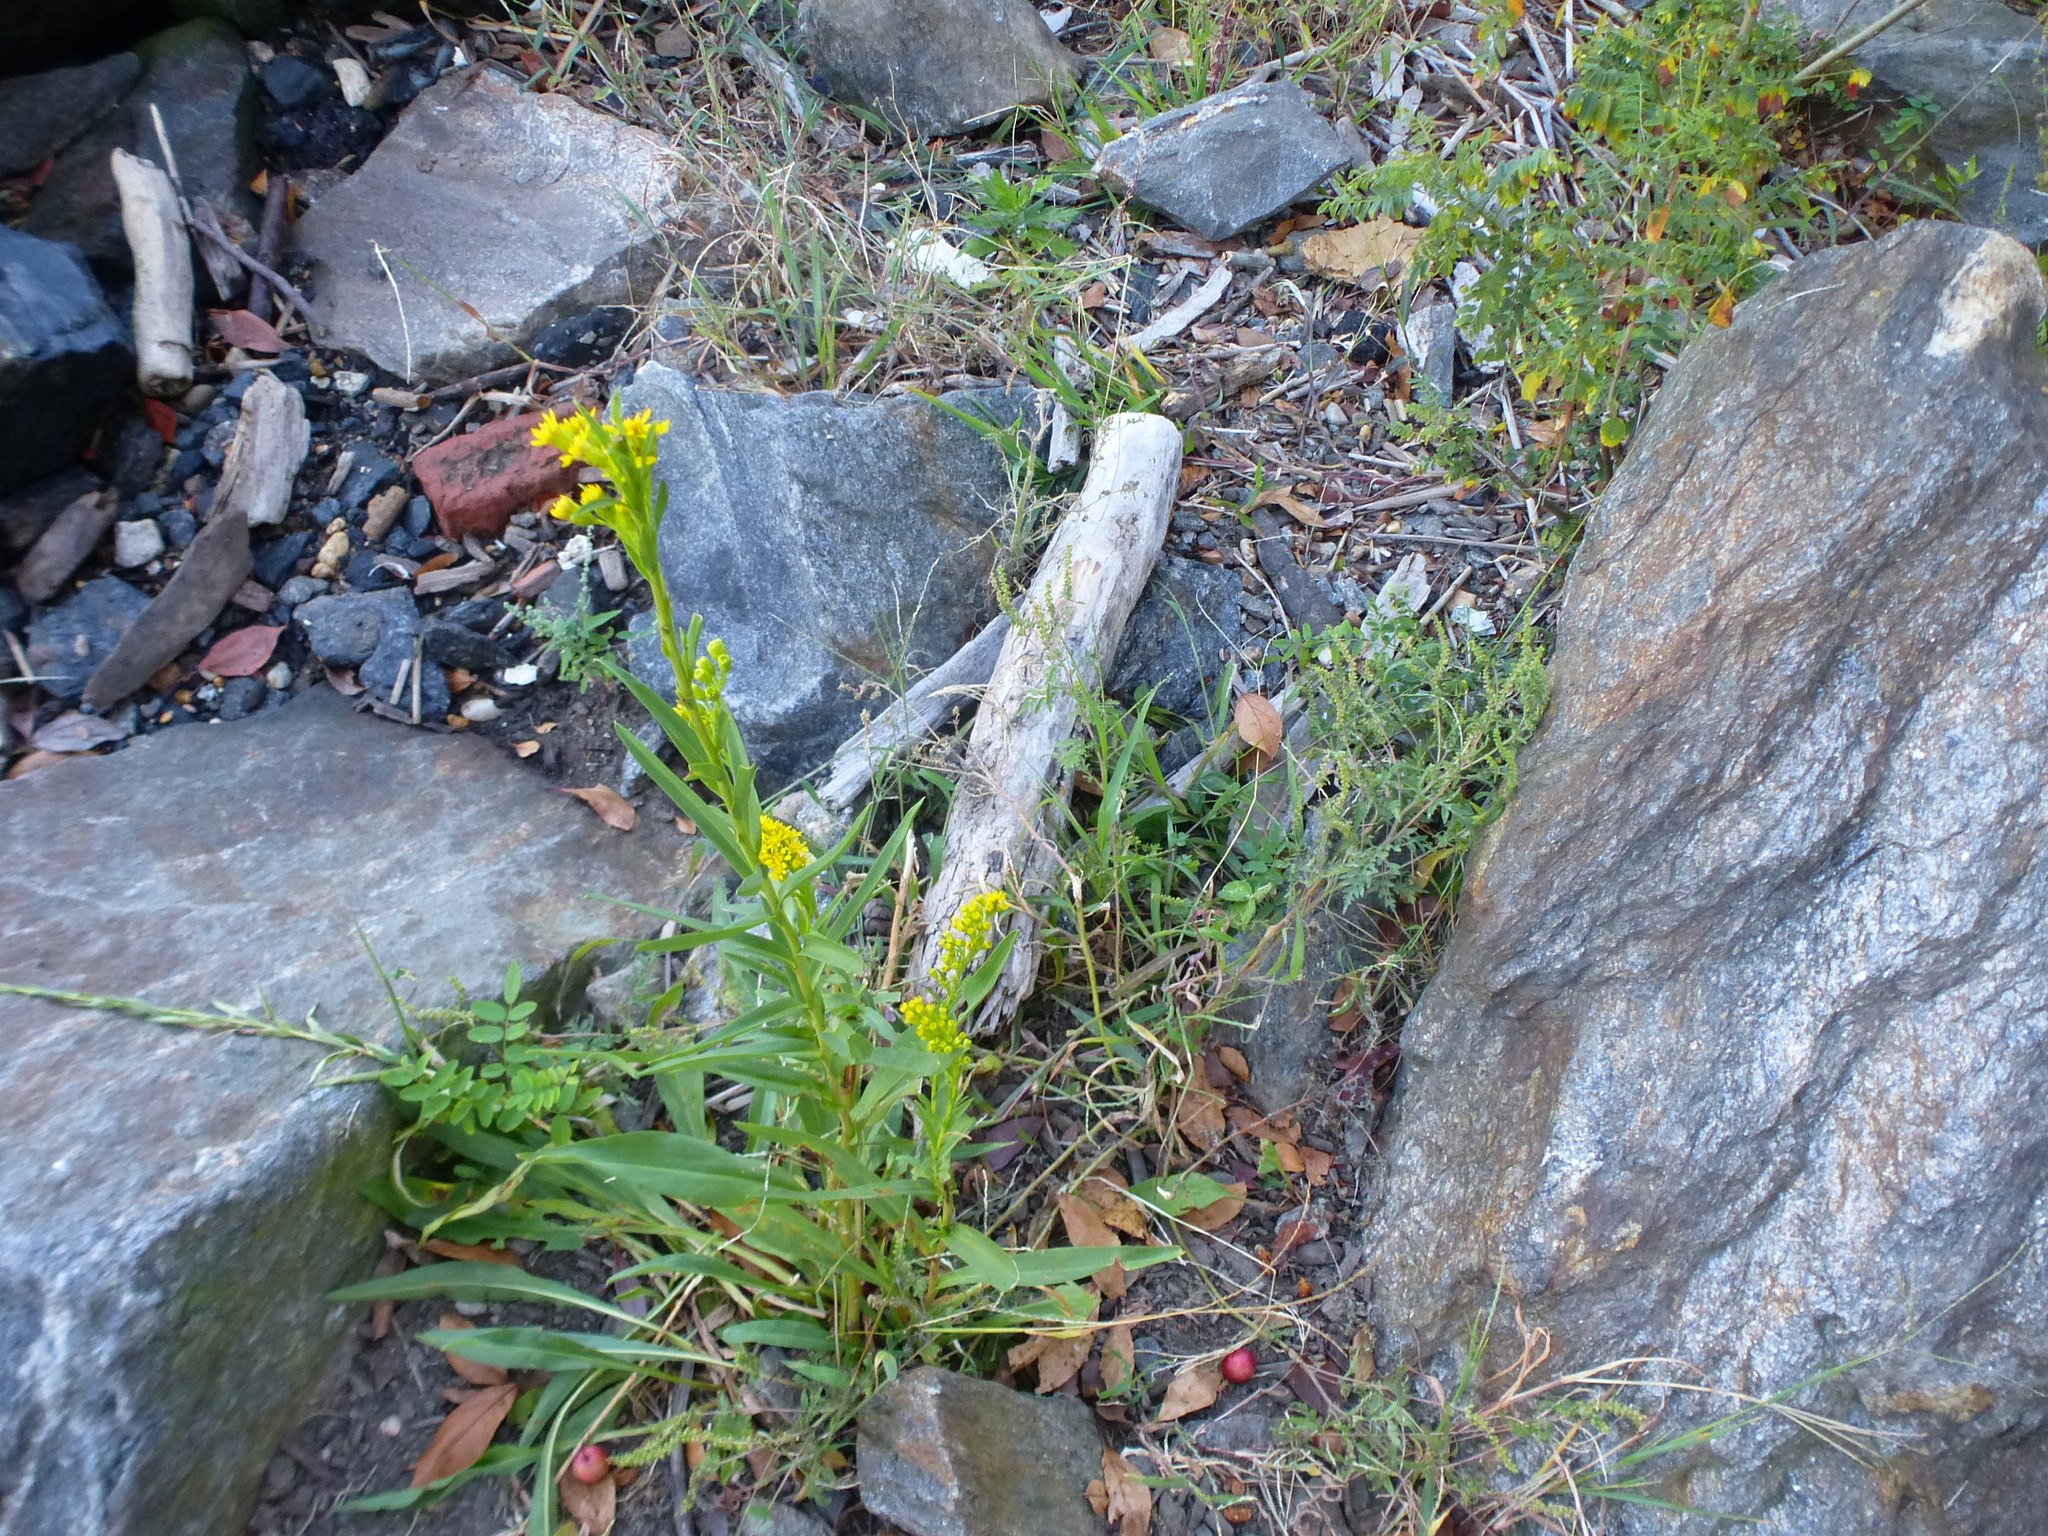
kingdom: Plantae
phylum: Tracheophyta
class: Magnoliopsida
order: Asterales
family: Asteraceae
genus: Solidago
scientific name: Solidago sempervirens
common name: Salt-marsh goldenrod
